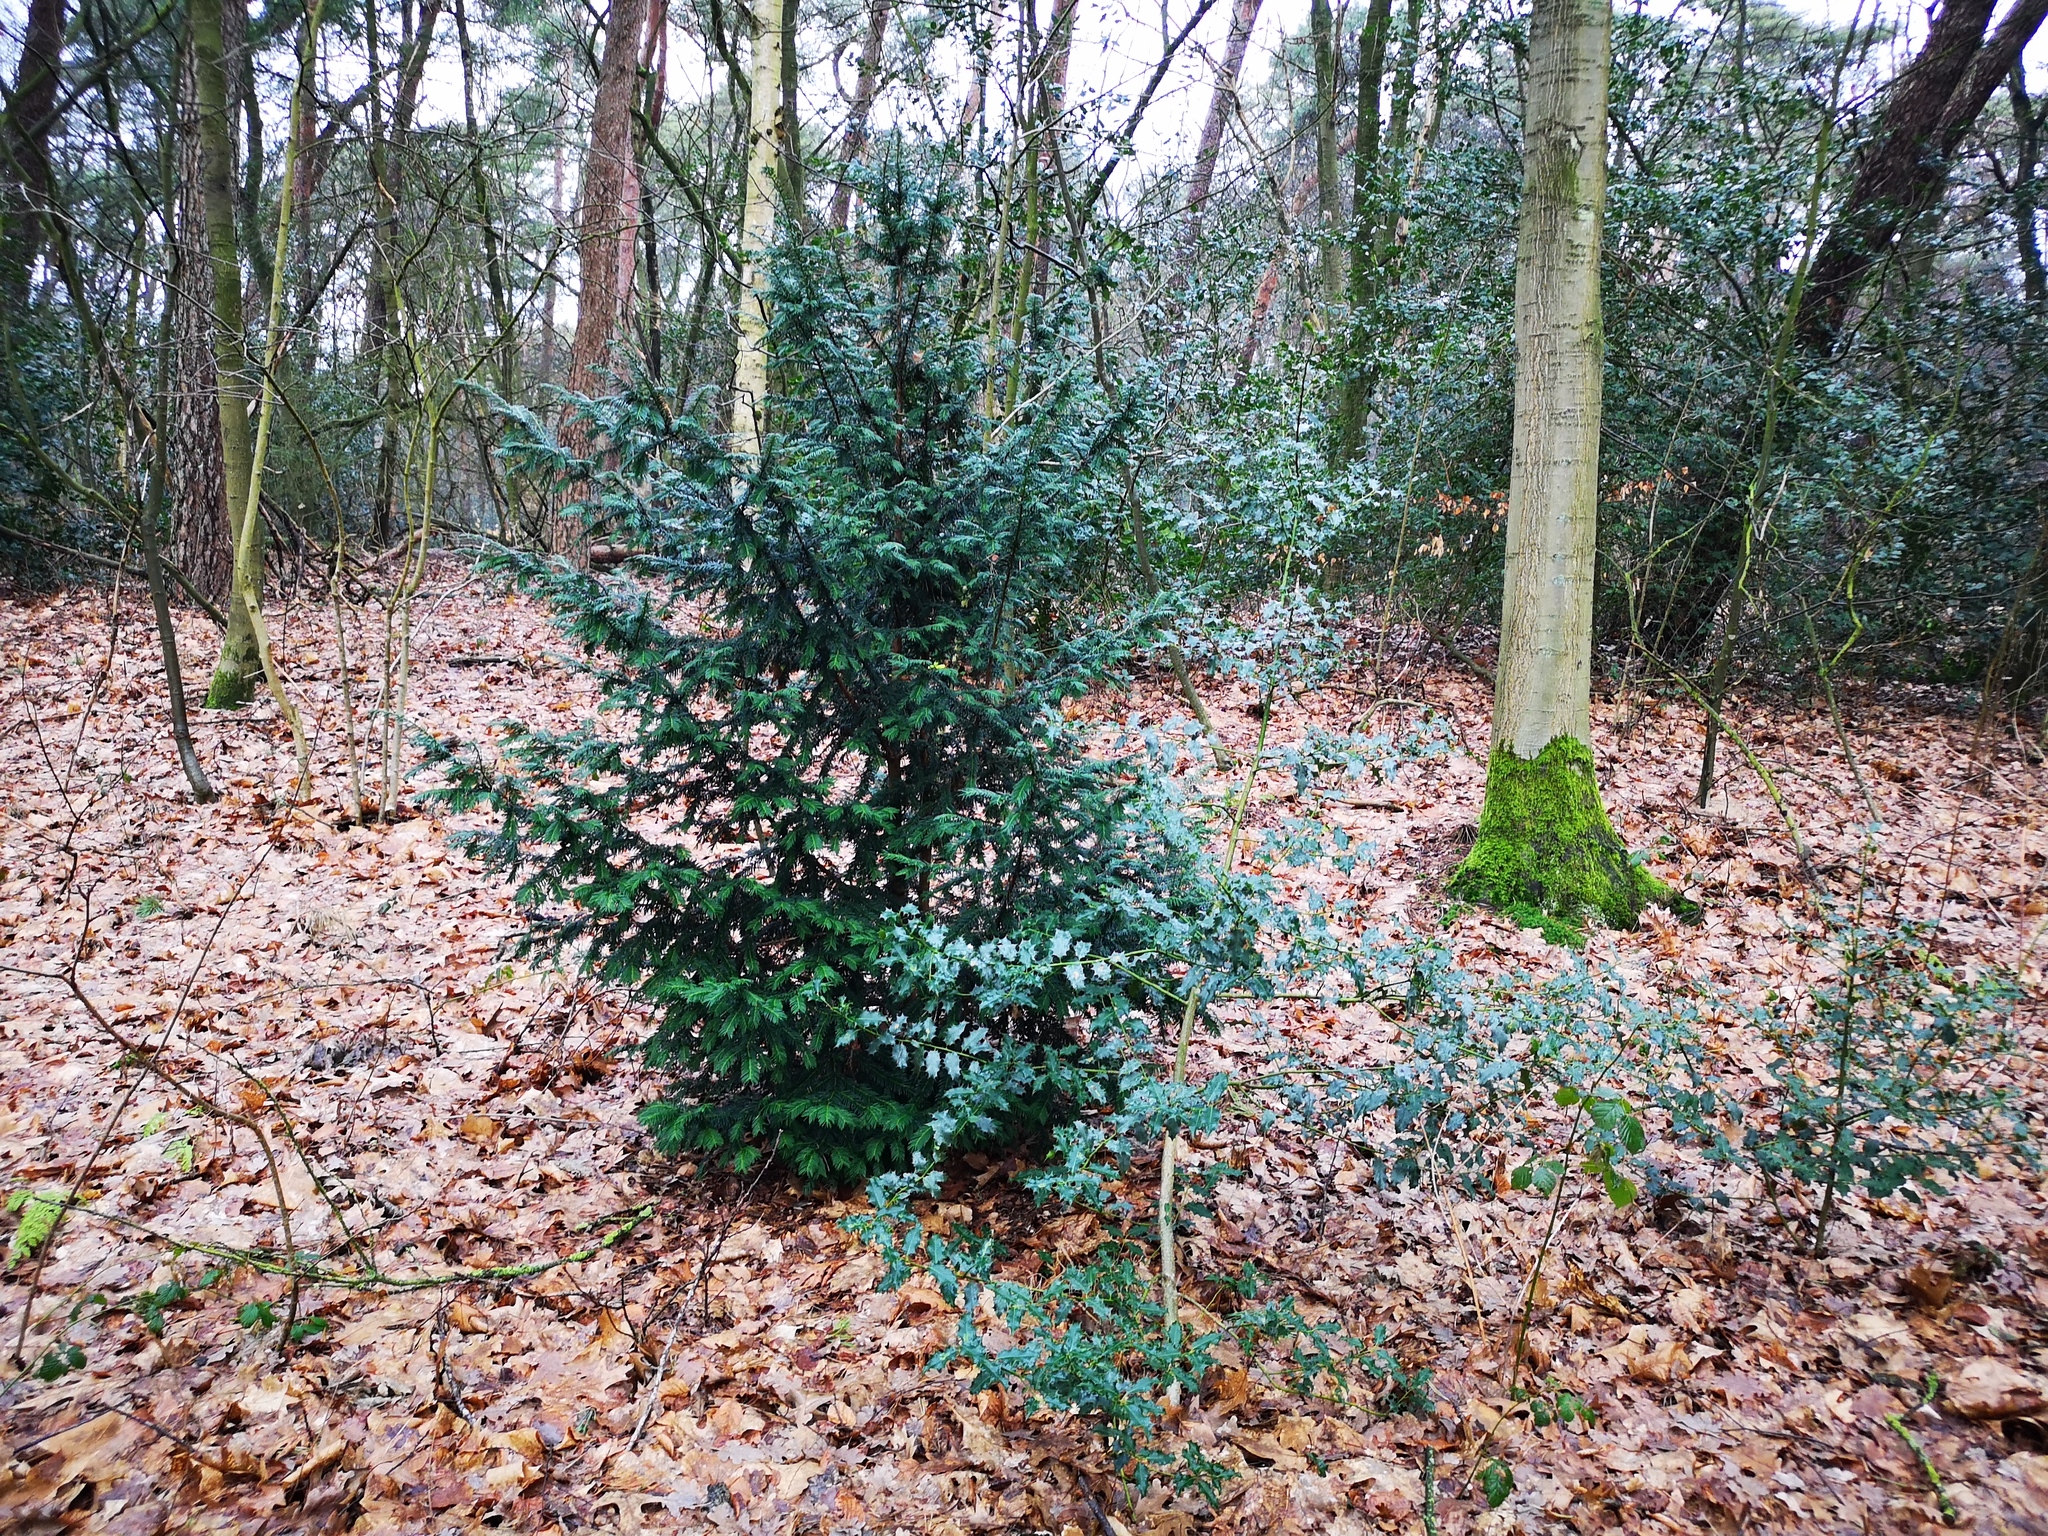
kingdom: Plantae
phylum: Tracheophyta
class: Pinopsida
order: Pinales
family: Taxaceae
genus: Taxus
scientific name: Taxus baccata
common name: Yew
